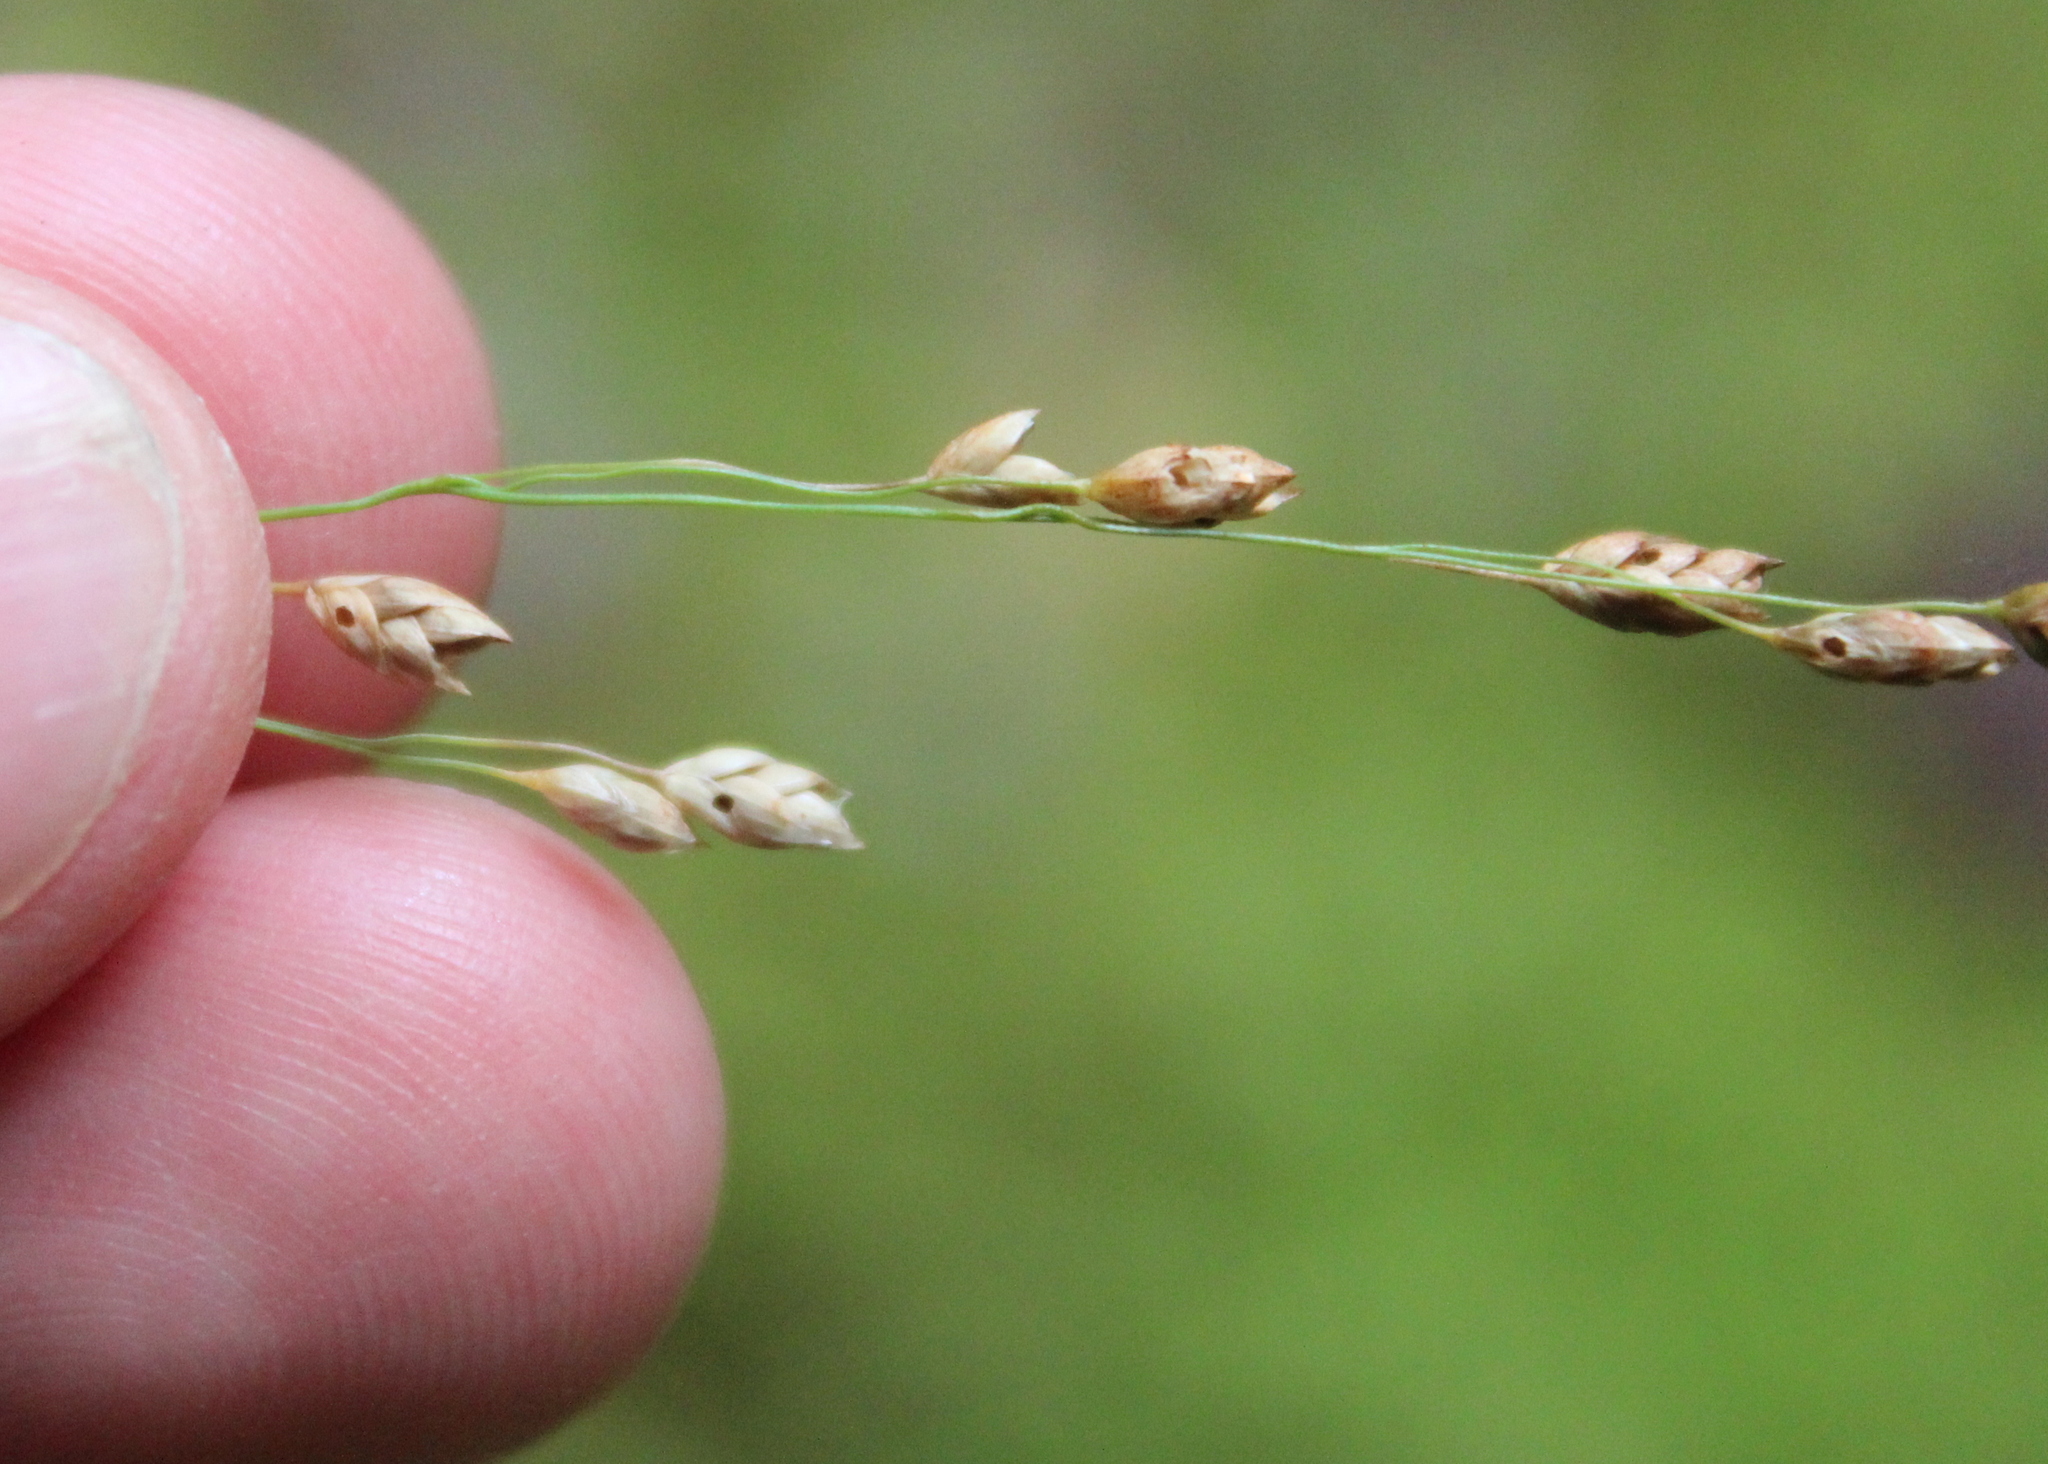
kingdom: Plantae
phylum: Tracheophyta
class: Liliopsida
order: Poales
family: Poaceae
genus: Glyceria
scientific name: Glyceria canadensis
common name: Canada mannagrass
